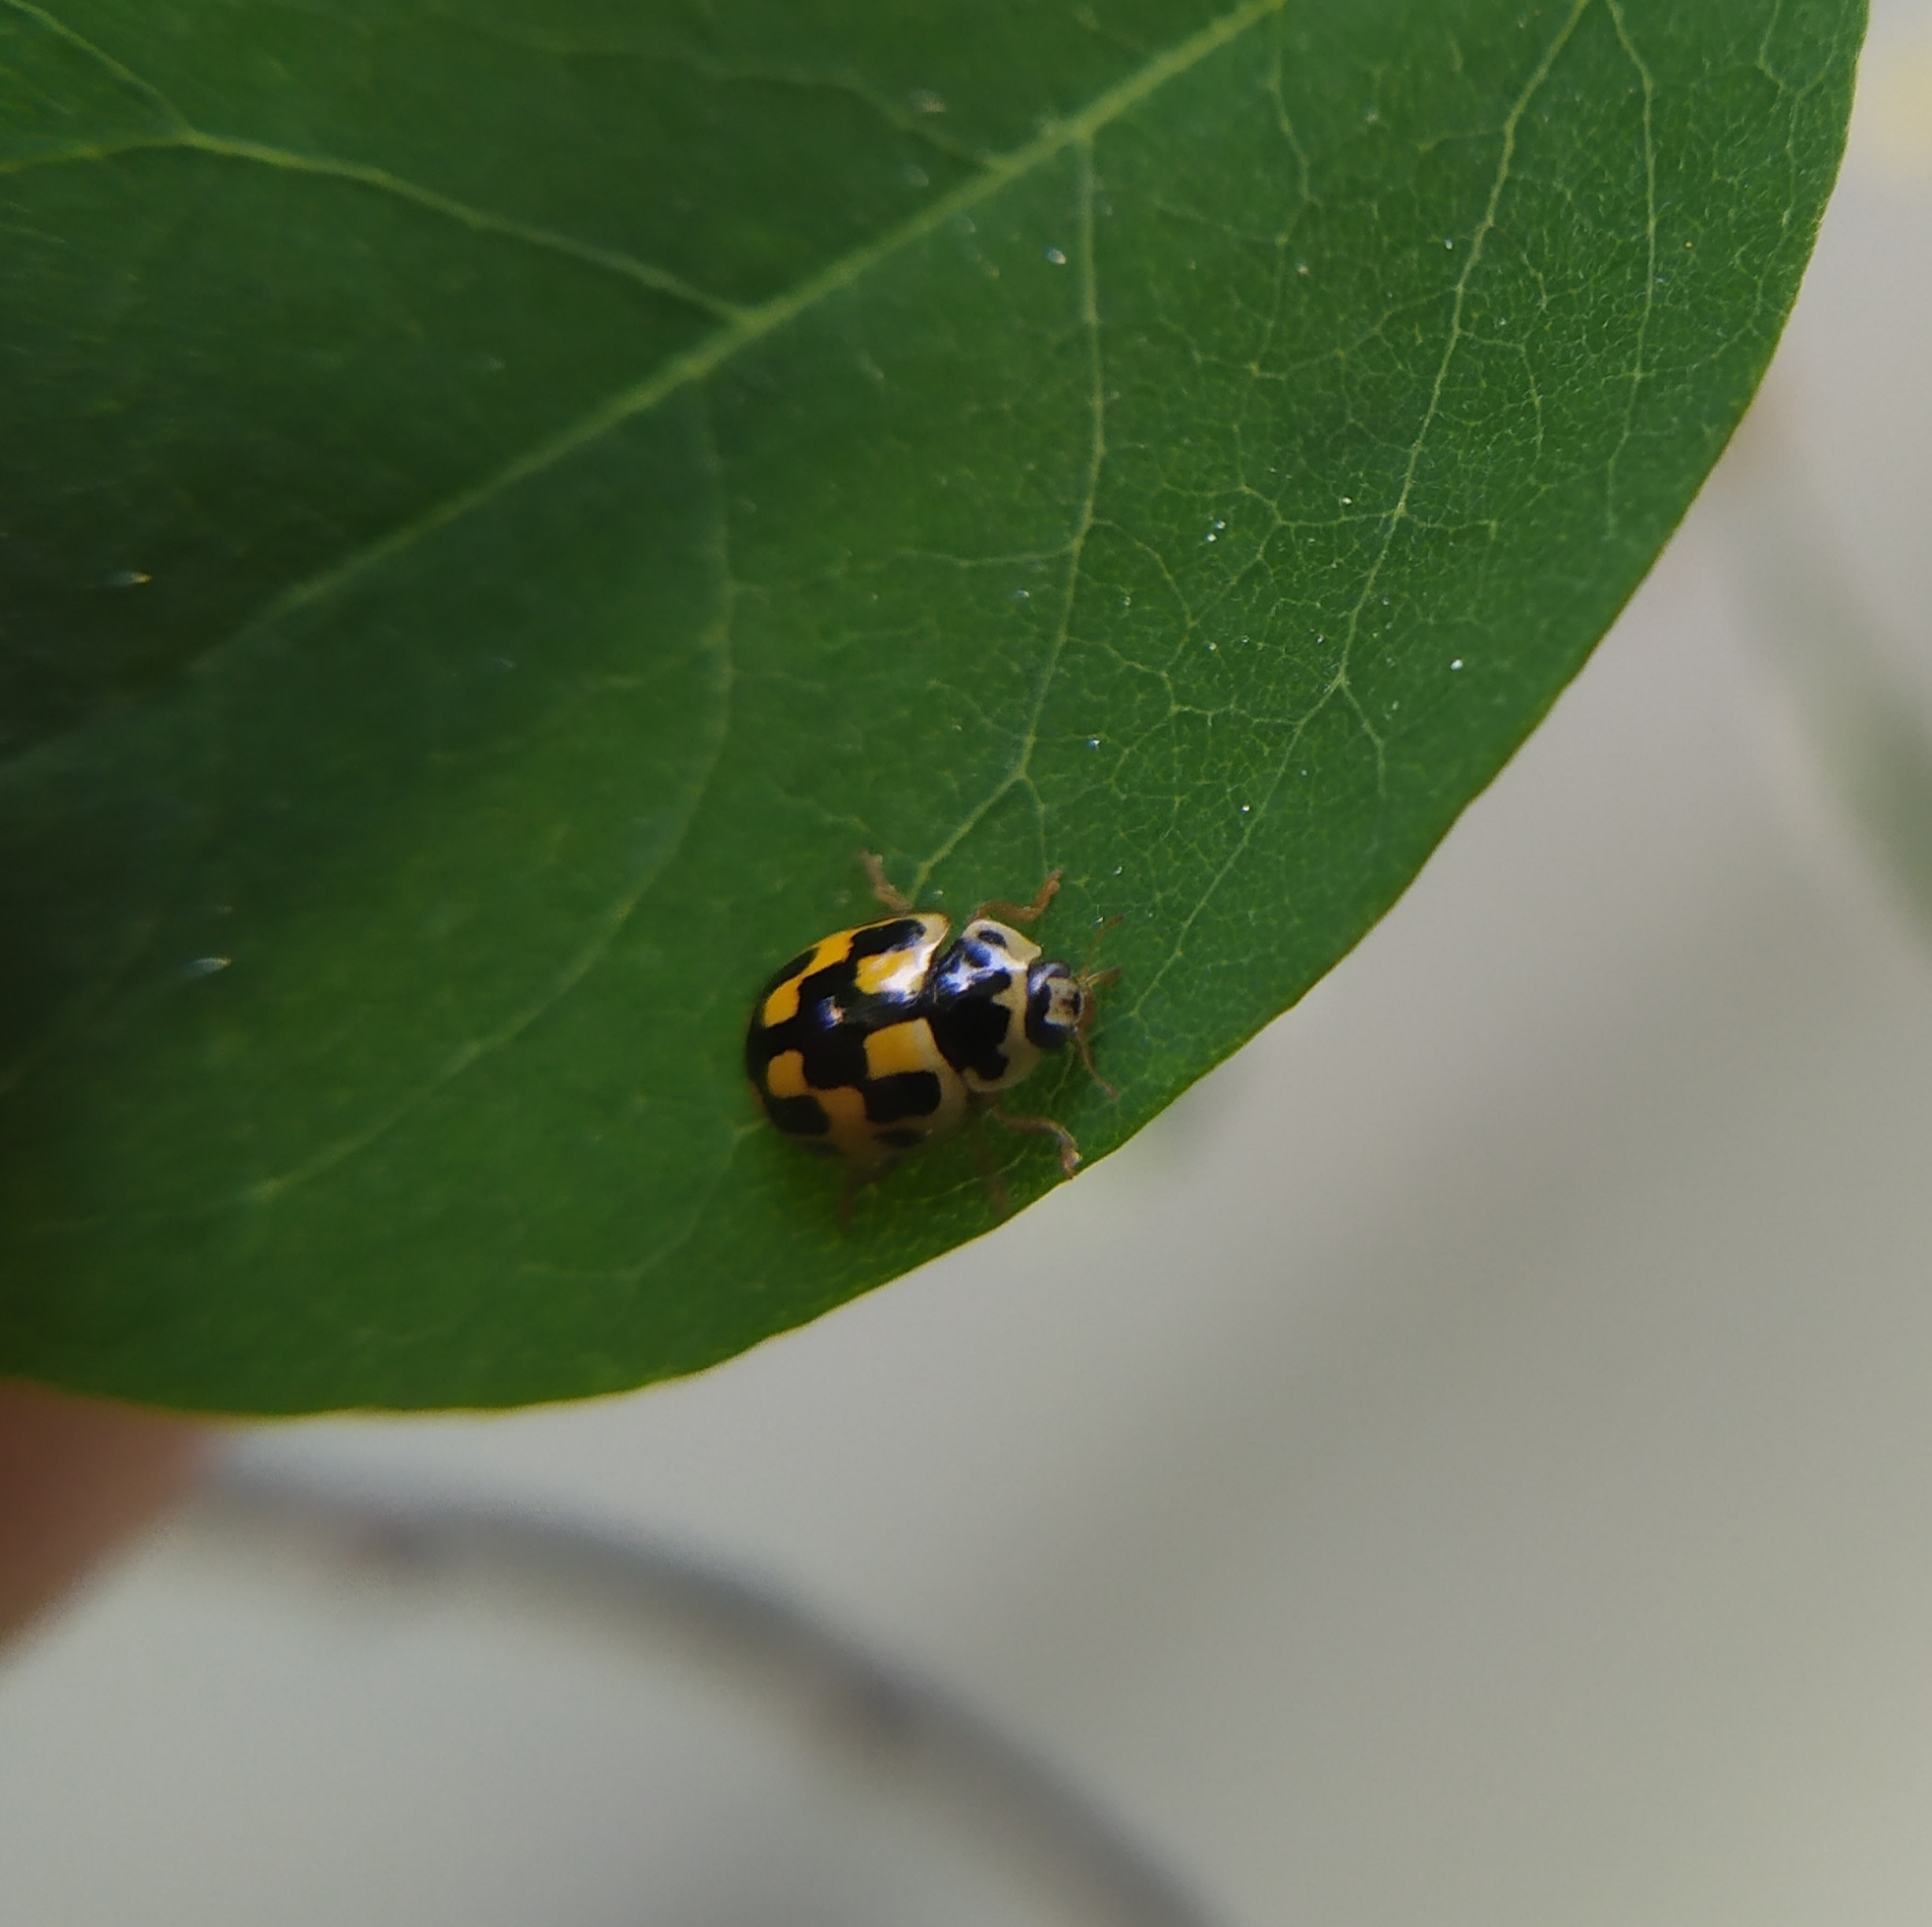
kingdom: Animalia
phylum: Arthropoda
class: Insecta
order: Coleoptera
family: Coccinellidae
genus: Propylaea
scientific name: Propylaea quatuordecimpunctata
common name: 14-spotted ladybird beetle
